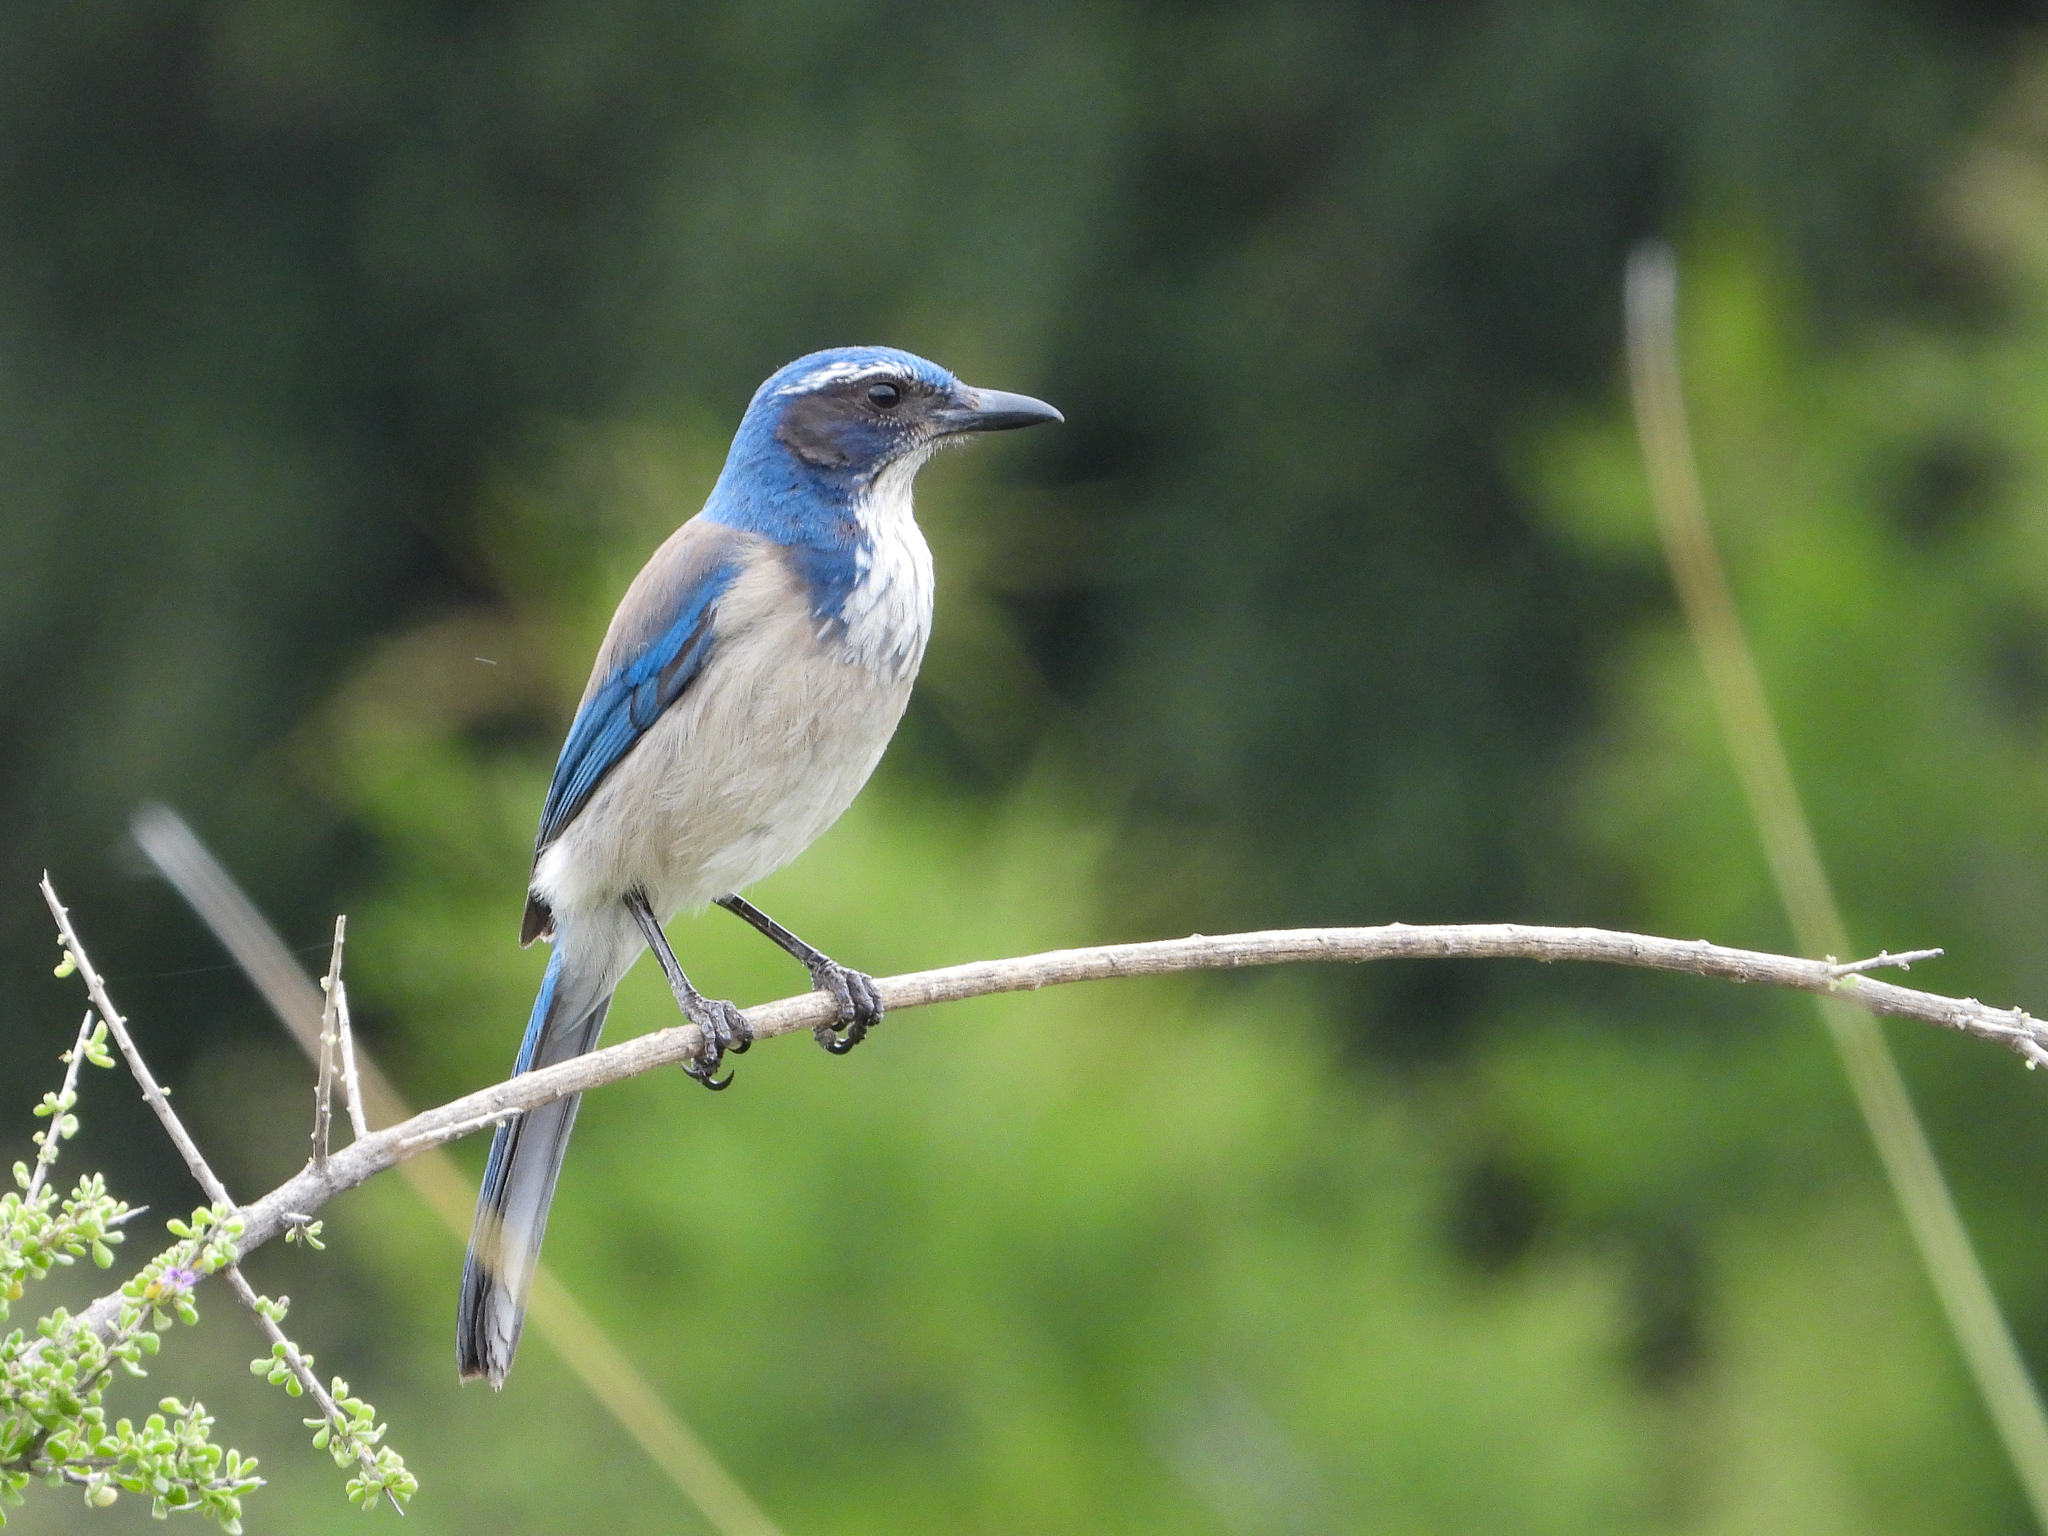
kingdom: Animalia
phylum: Chordata
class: Aves
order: Passeriformes
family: Corvidae
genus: Aphelocoma
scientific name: Aphelocoma californica
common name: California scrub-jay
